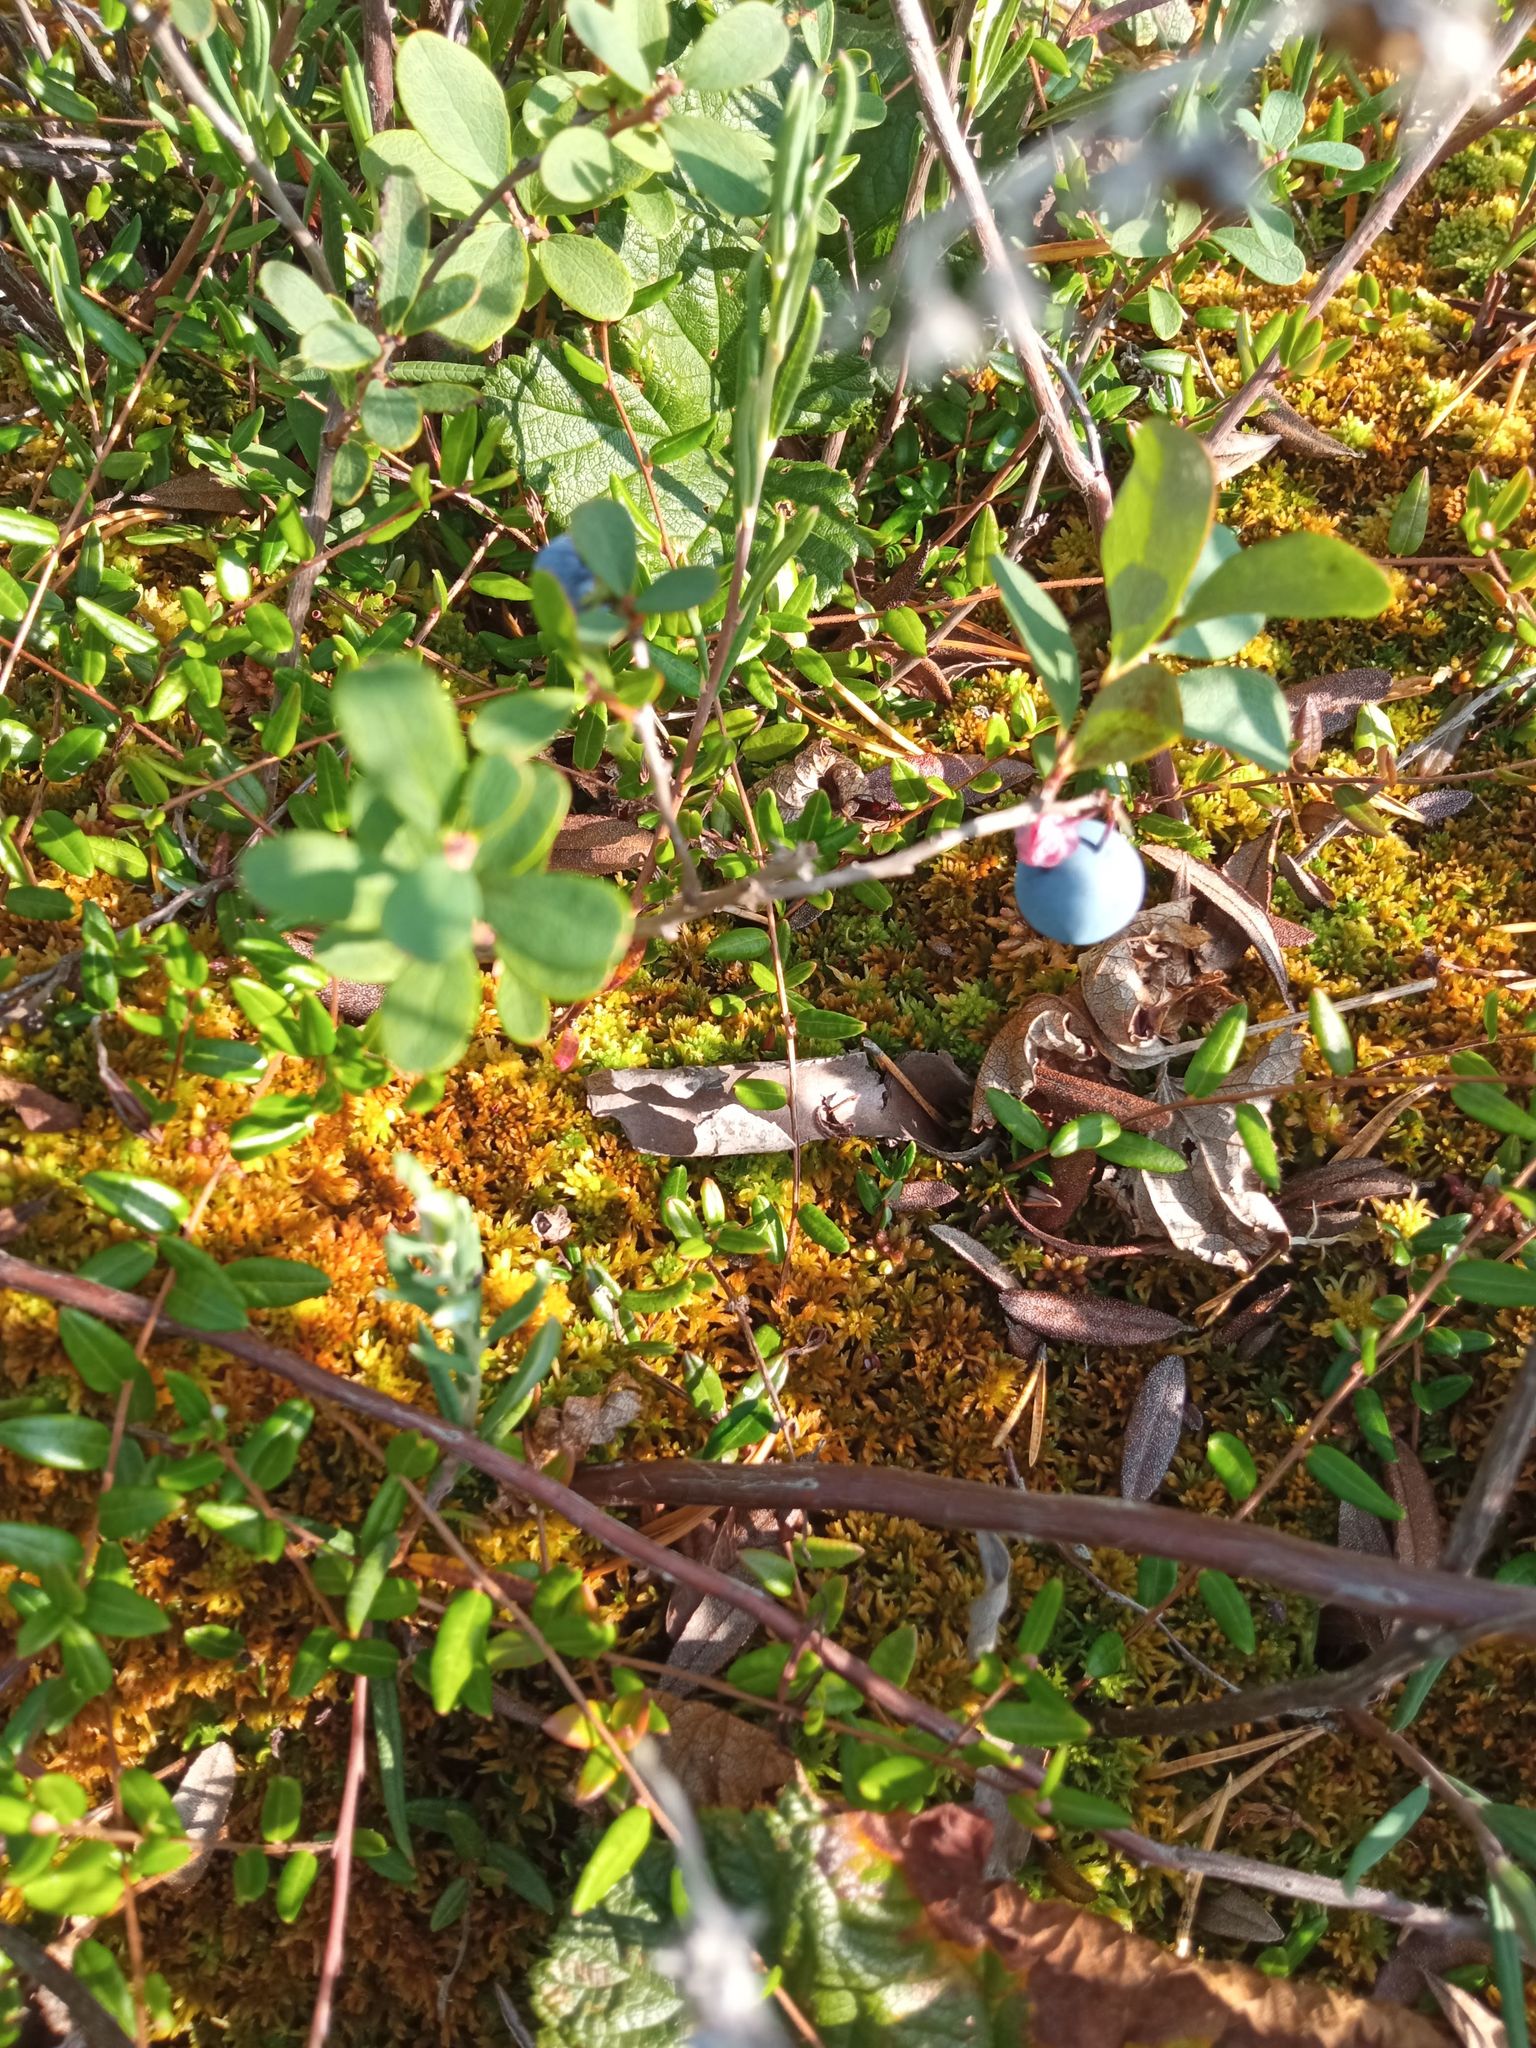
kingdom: Plantae
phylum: Tracheophyta
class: Magnoliopsida
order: Ericales
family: Ericaceae
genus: Vaccinium
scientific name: Vaccinium uliginosum
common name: Bog bilberry
